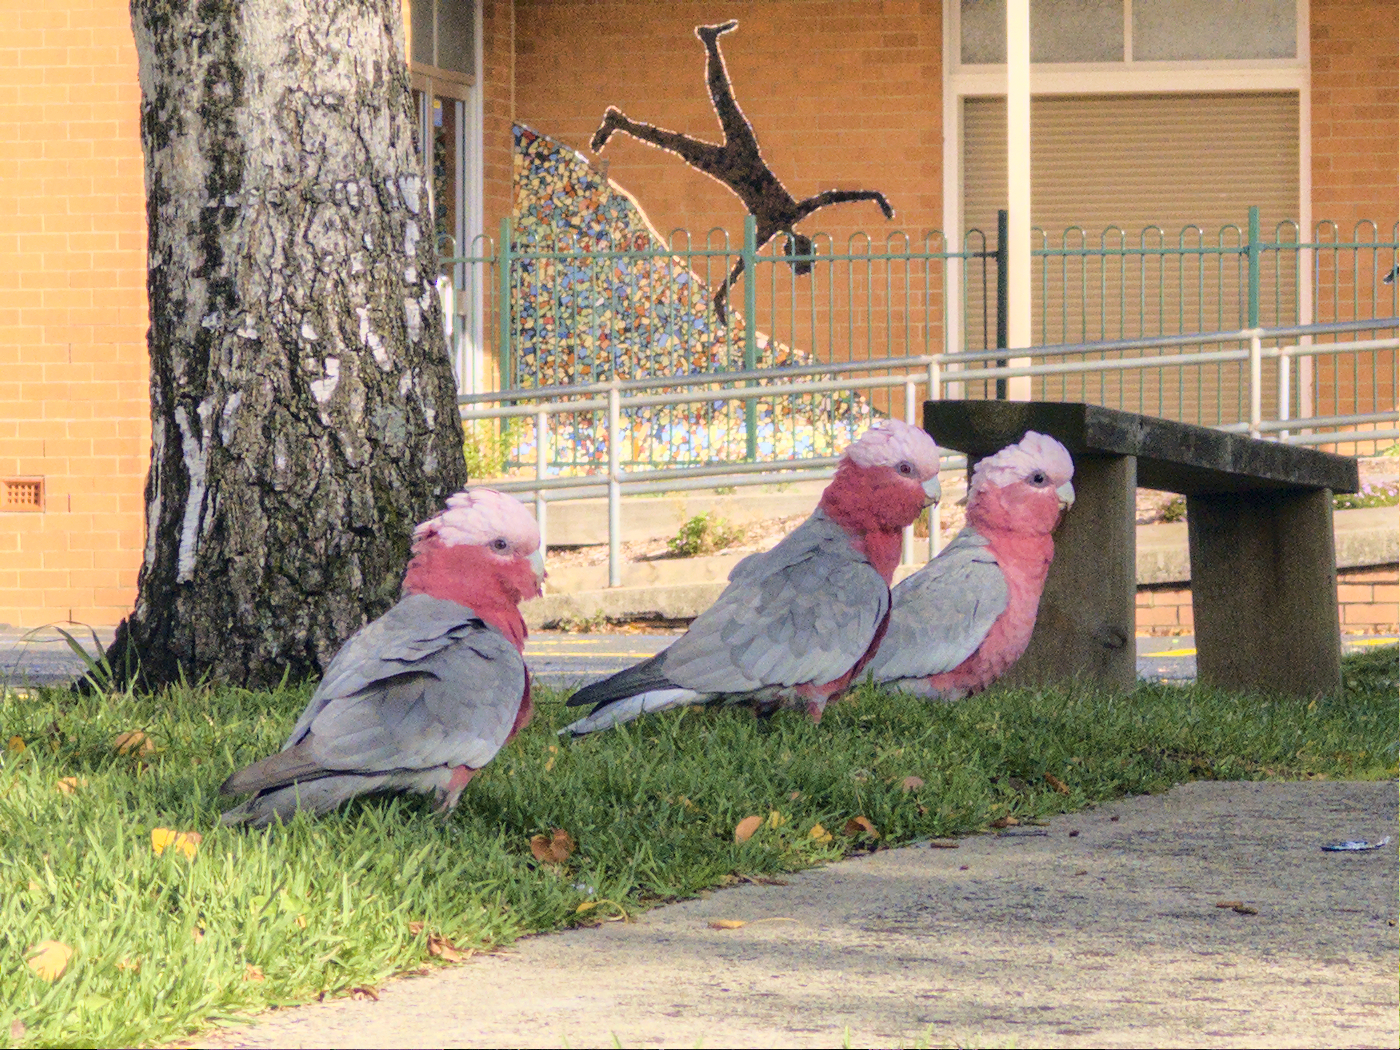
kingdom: Animalia
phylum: Chordata
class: Aves
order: Psittaciformes
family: Psittacidae
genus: Eolophus
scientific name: Eolophus roseicapilla
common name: Galah
